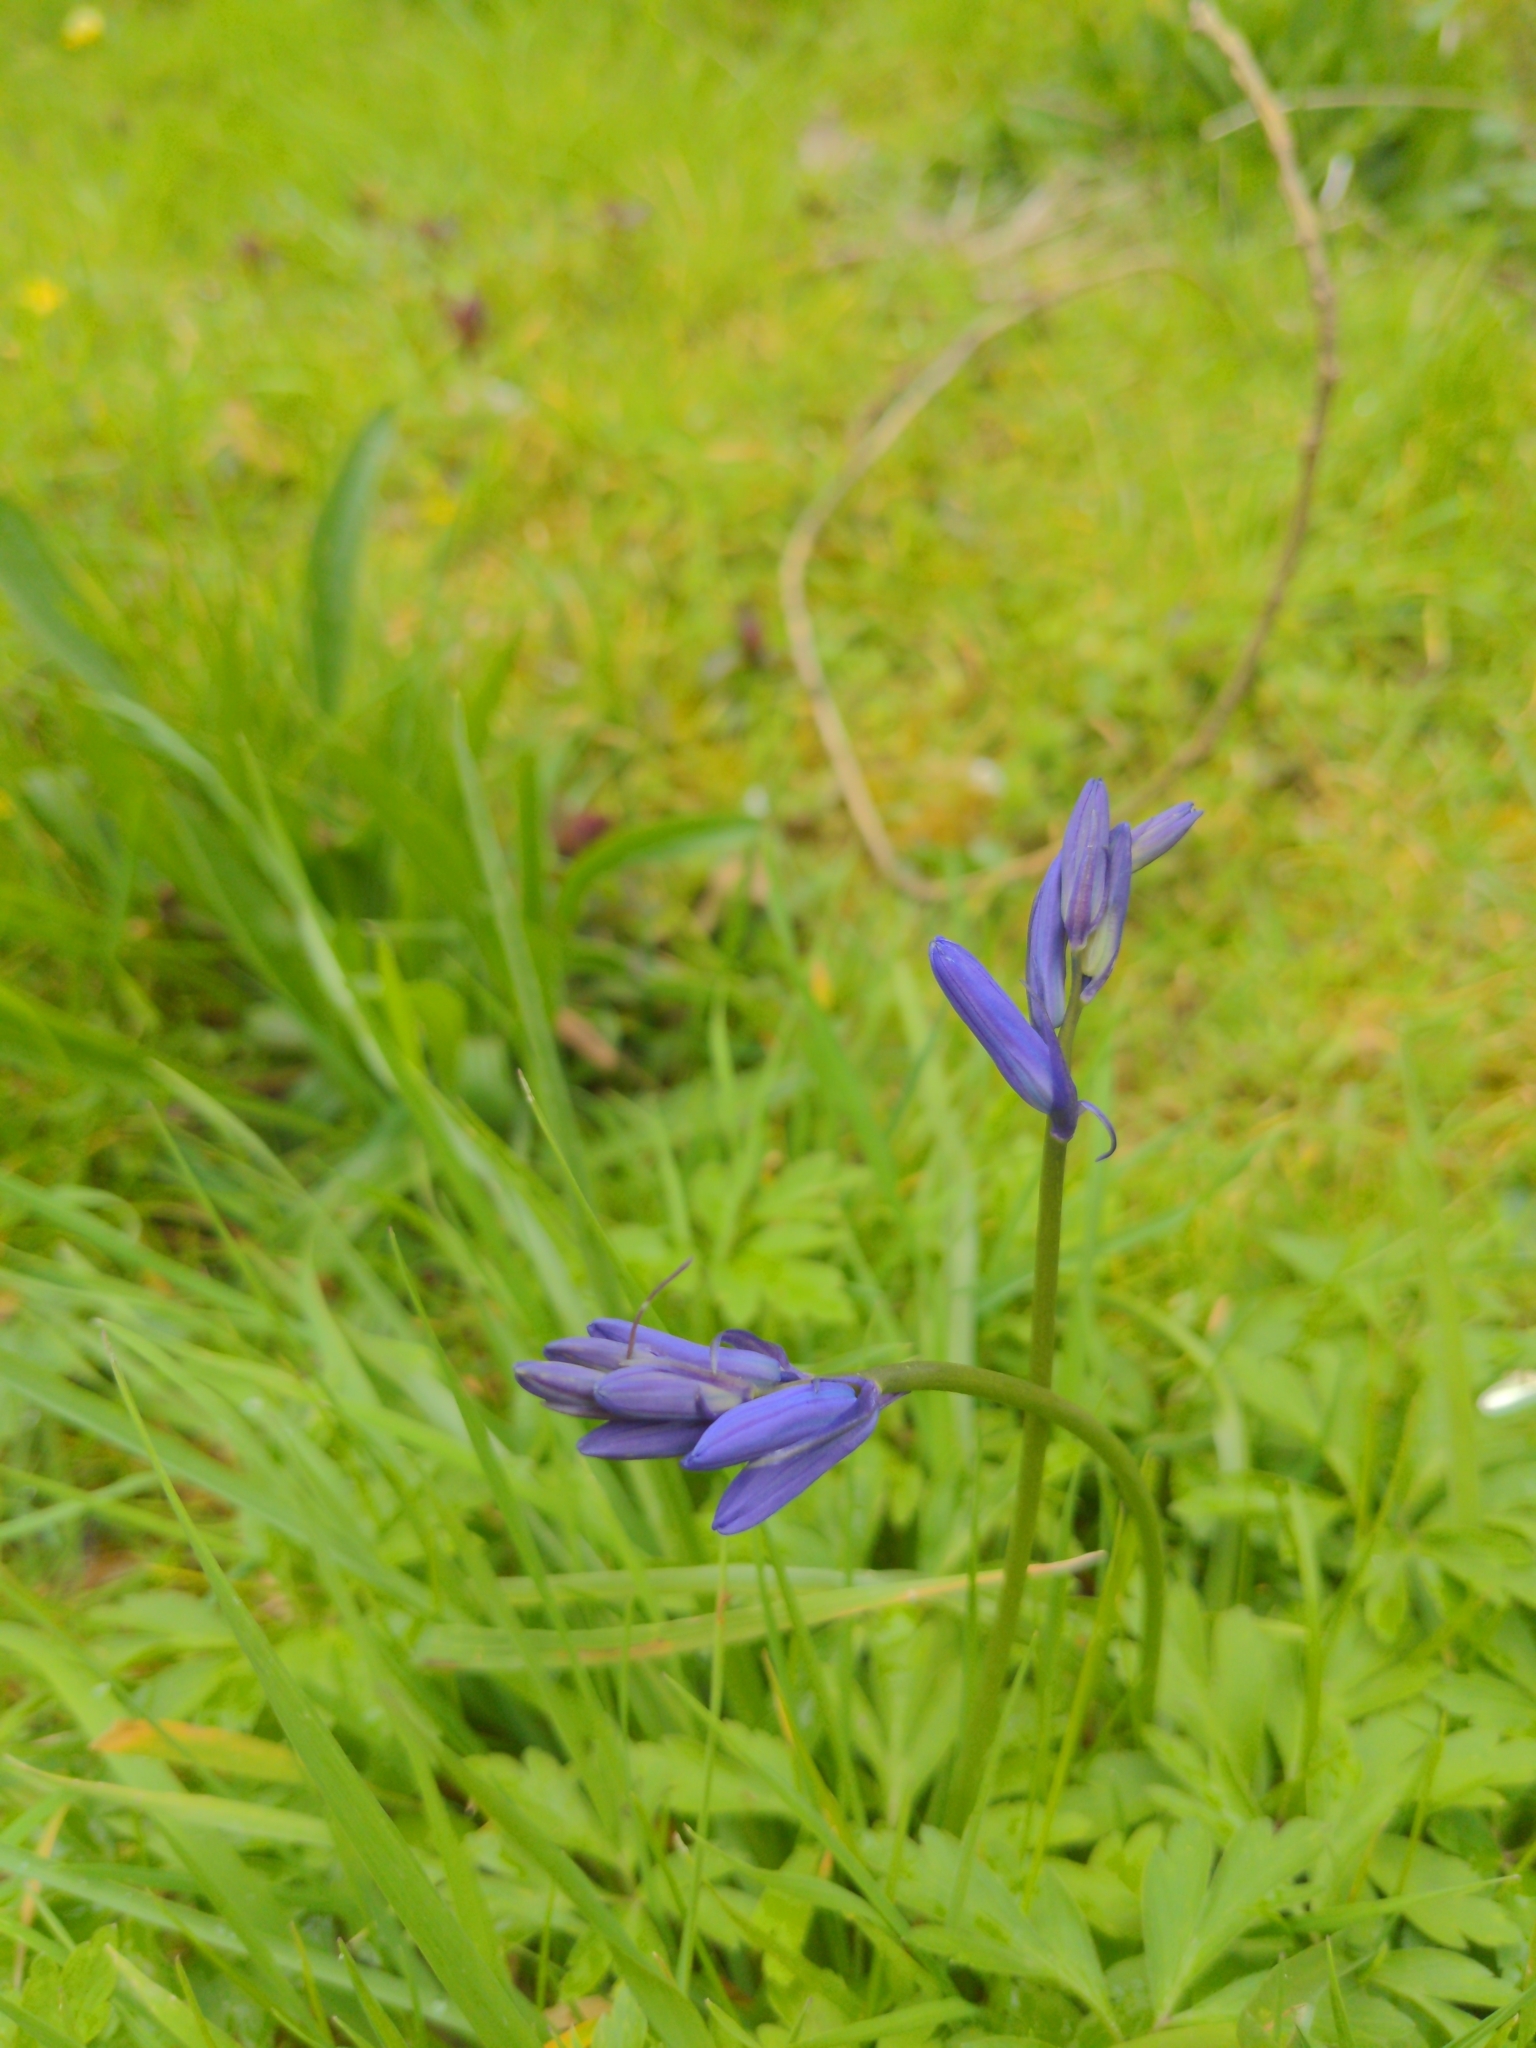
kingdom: Plantae
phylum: Tracheophyta
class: Liliopsida
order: Asparagales
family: Asparagaceae
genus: Hyacinthoides
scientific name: Hyacinthoides non-scripta
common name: Bluebell
